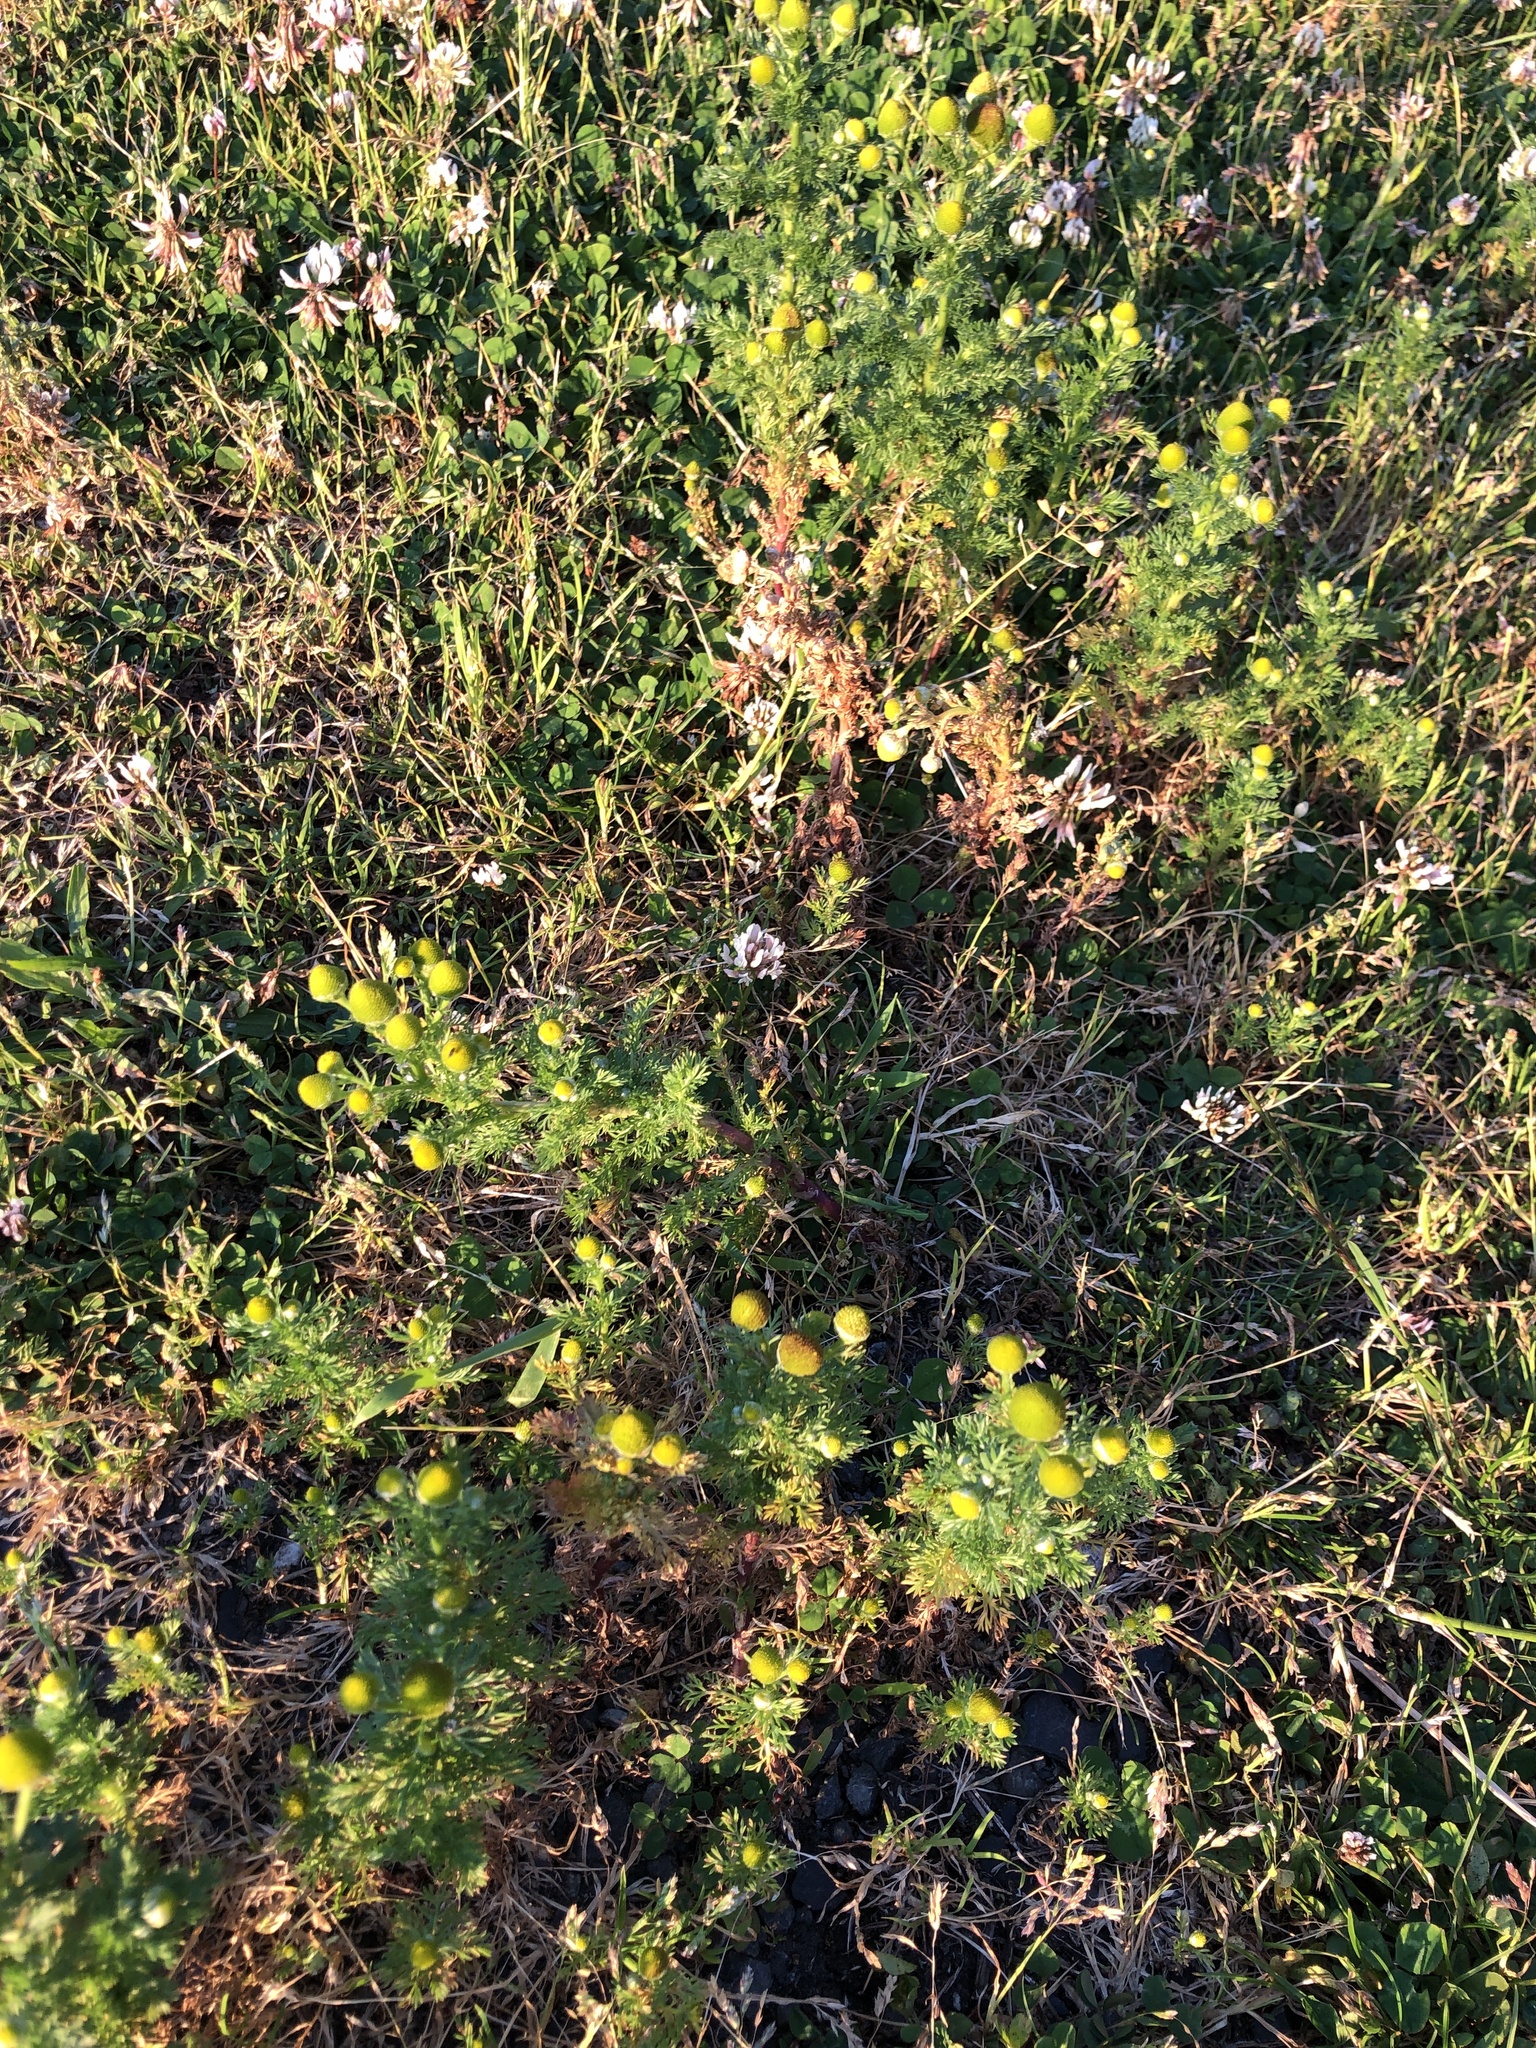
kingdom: Plantae
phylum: Tracheophyta
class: Magnoliopsida
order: Asterales
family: Asteraceae
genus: Matricaria
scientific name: Matricaria discoidea
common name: Disc mayweed
